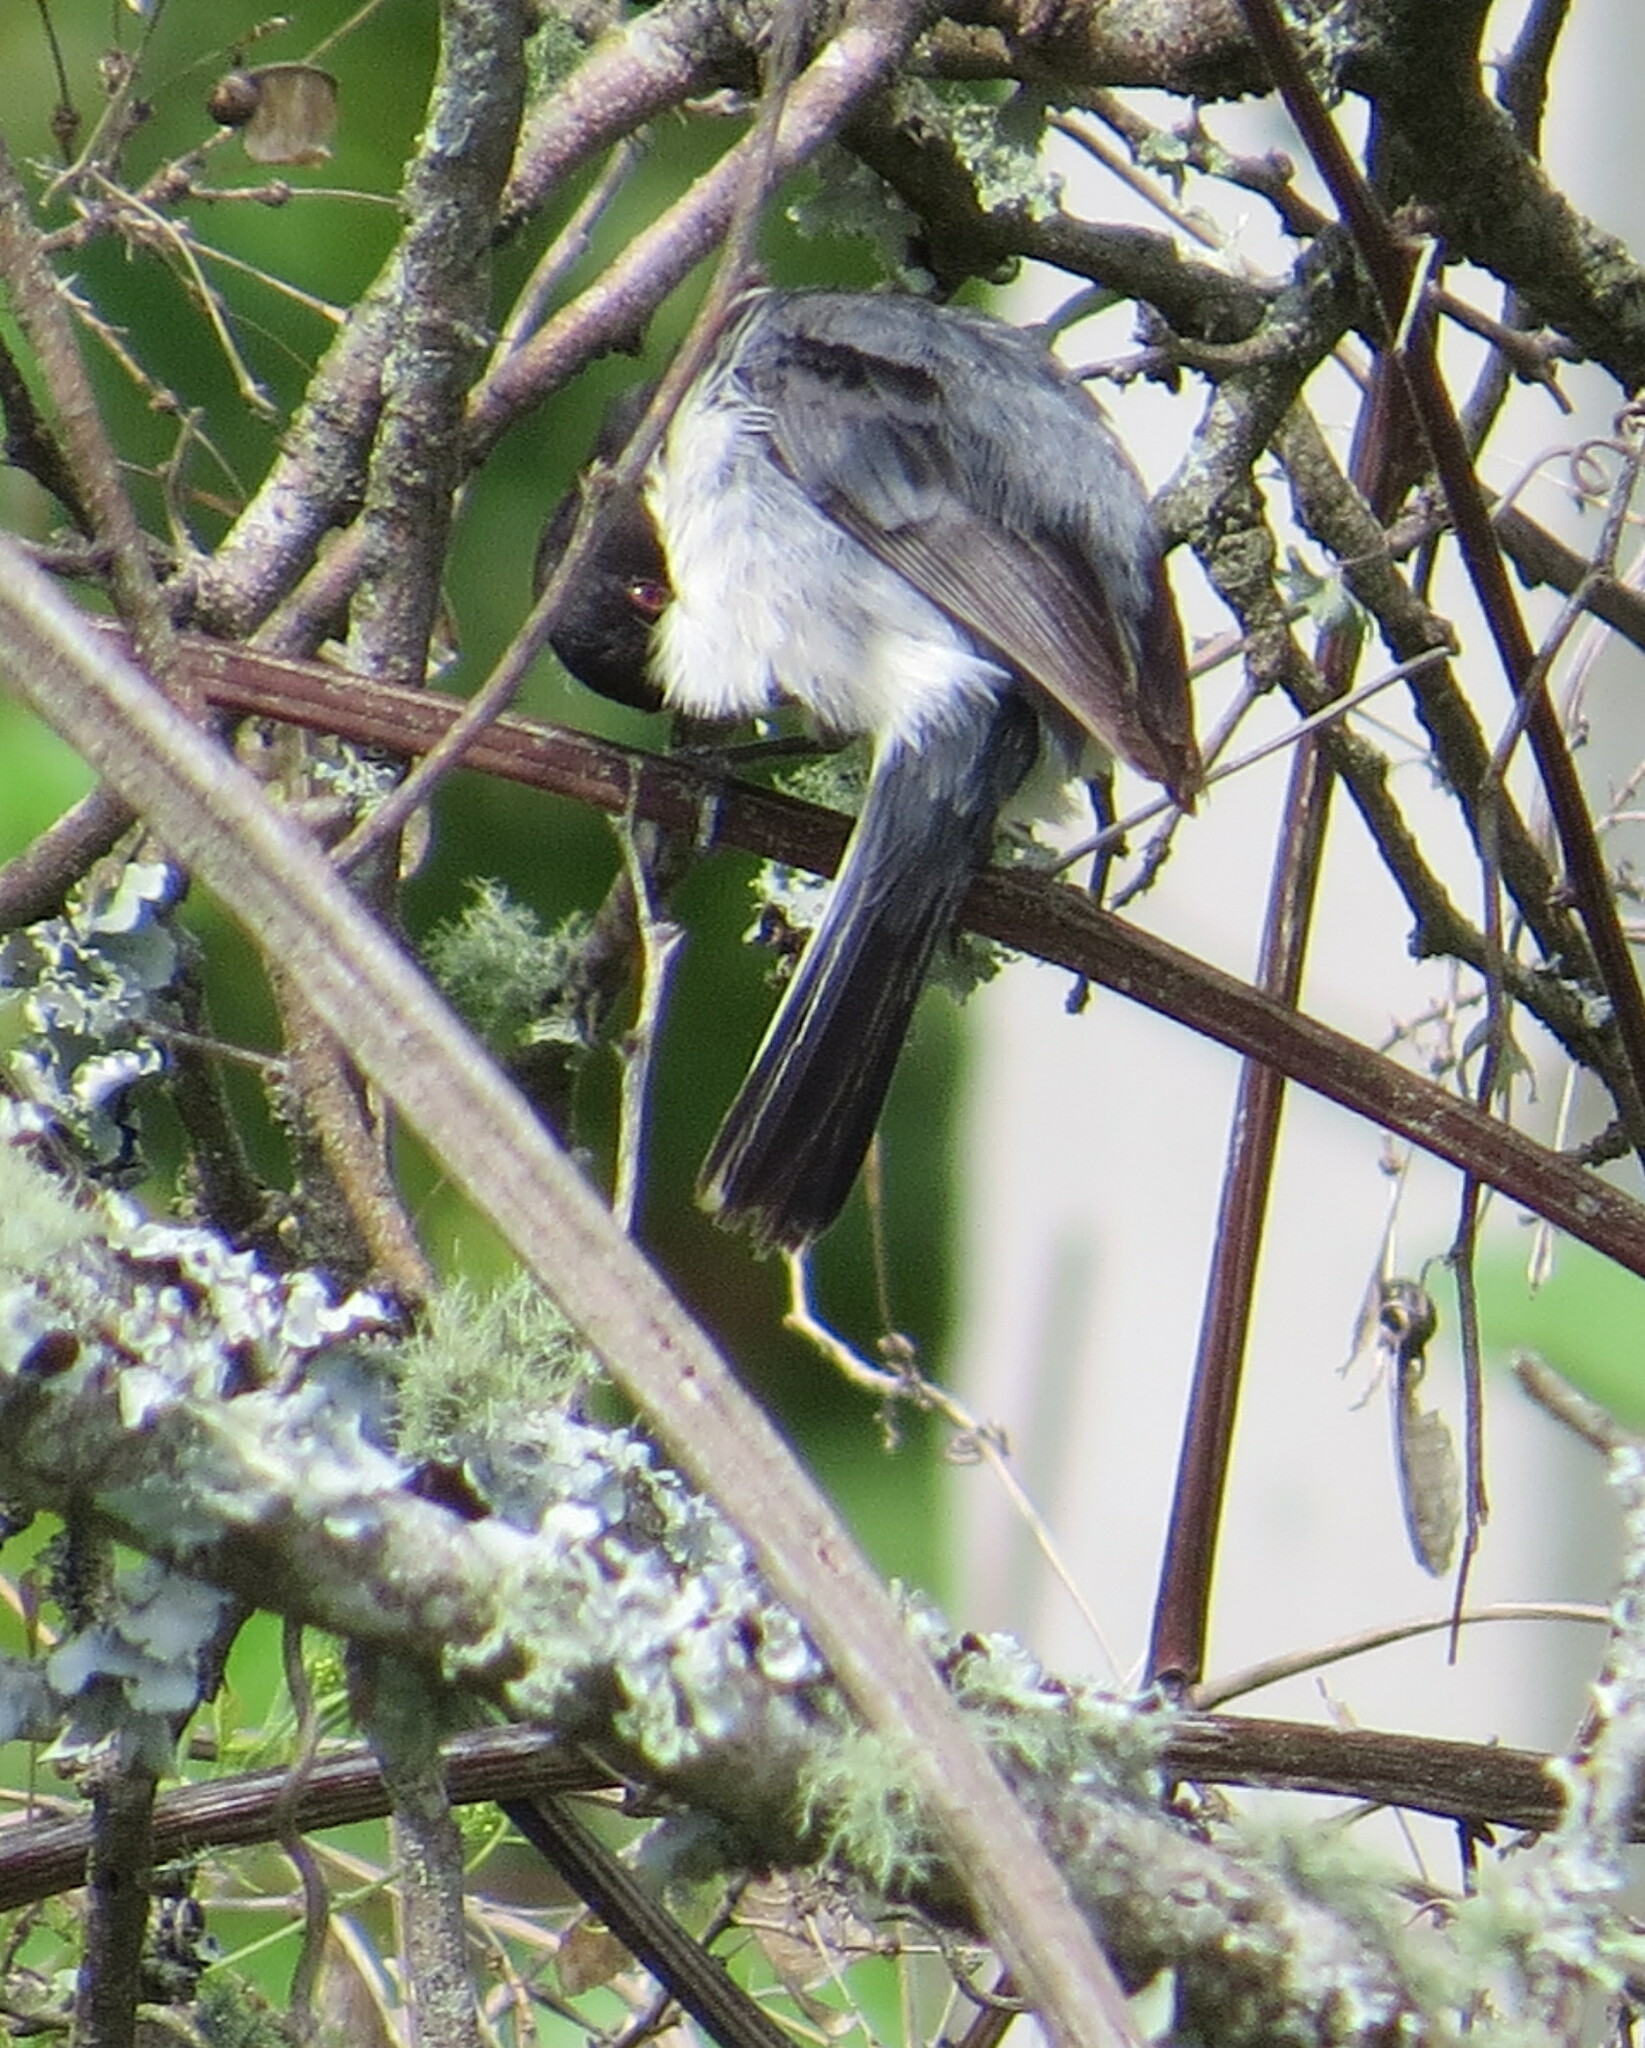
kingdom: Animalia
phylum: Chordata
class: Aves
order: Passeriformes
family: Thraupidae
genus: Microspingus
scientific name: Microspingus melanoleucus
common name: Black-capped warbling-finch
